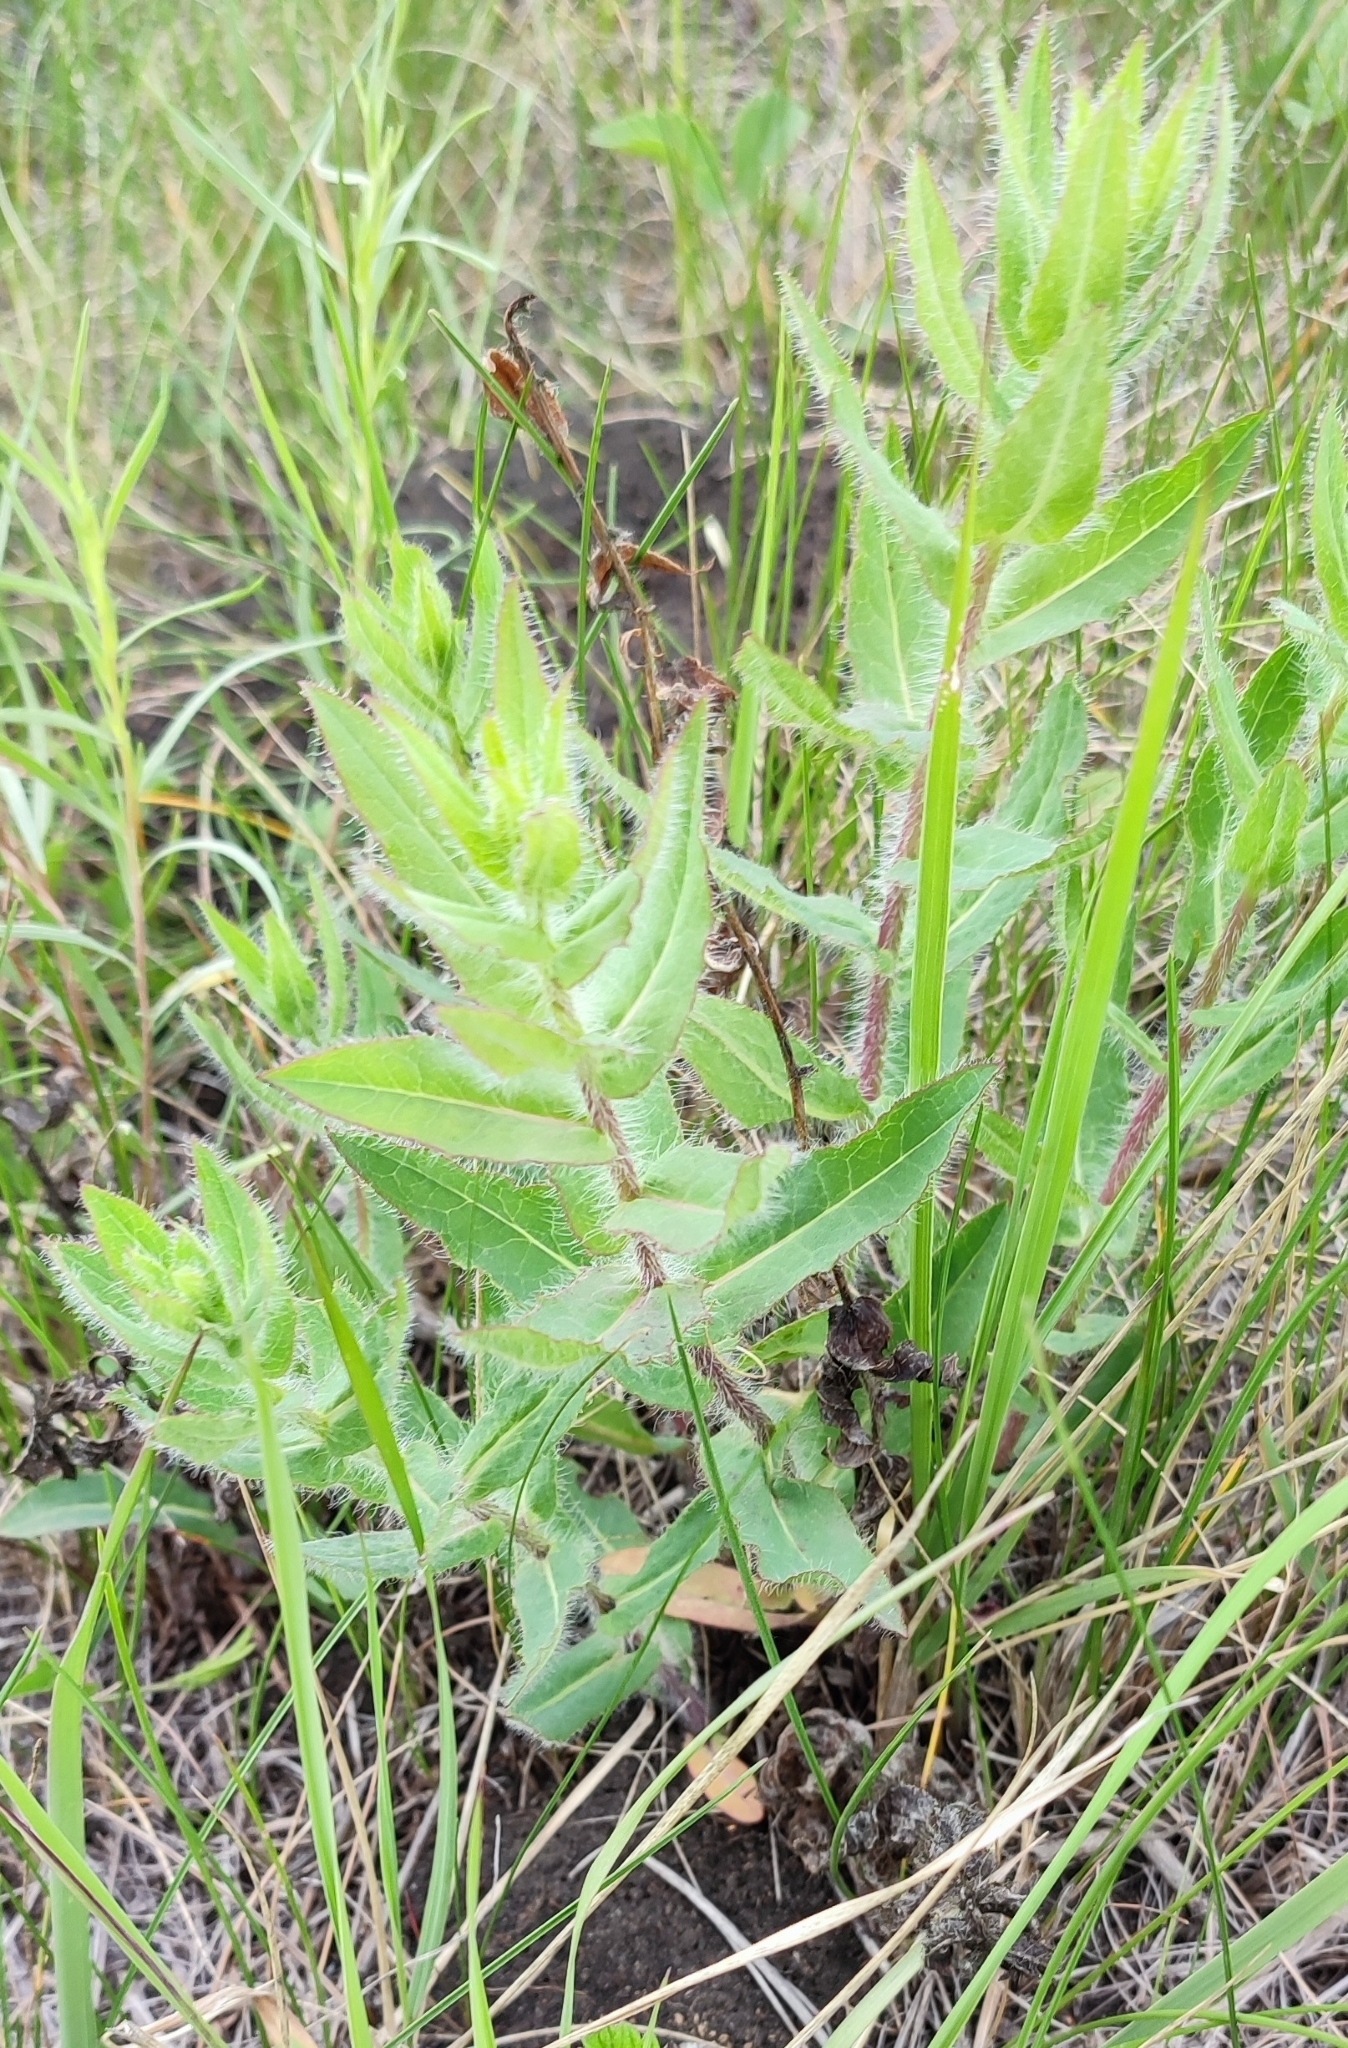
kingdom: Plantae
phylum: Tracheophyta
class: Magnoliopsida
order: Asterales
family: Asteraceae
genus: Hieracium
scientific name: Hieracium robustum
